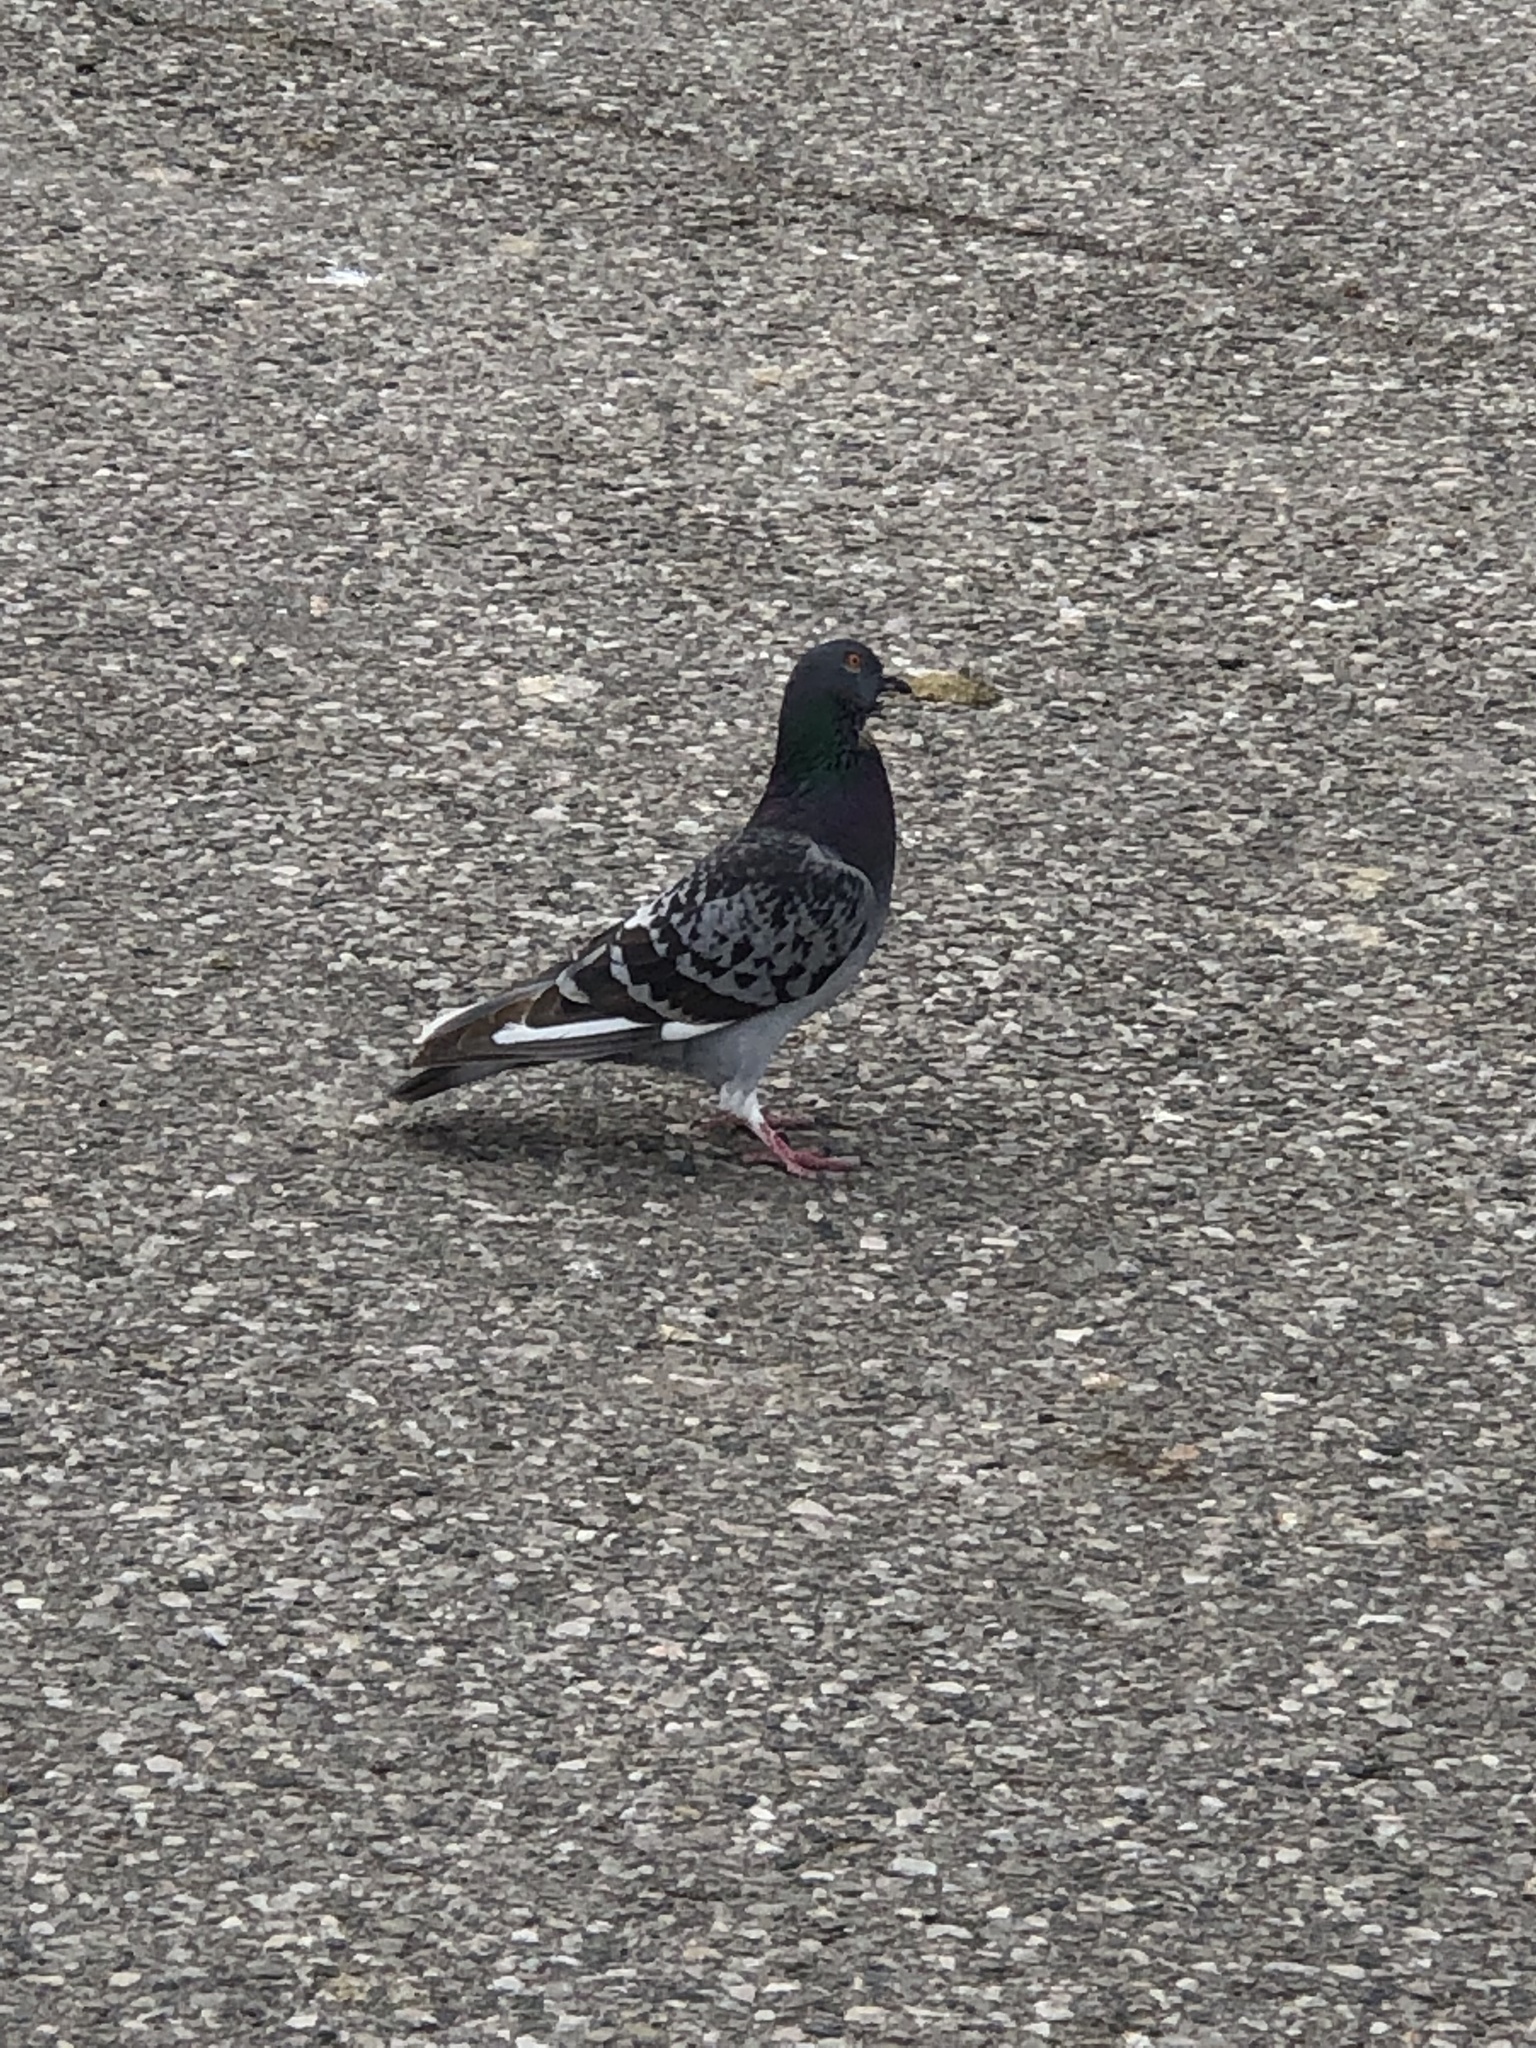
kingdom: Animalia
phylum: Chordata
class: Aves
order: Columbiformes
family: Columbidae
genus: Columba
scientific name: Columba livia
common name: Rock pigeon
